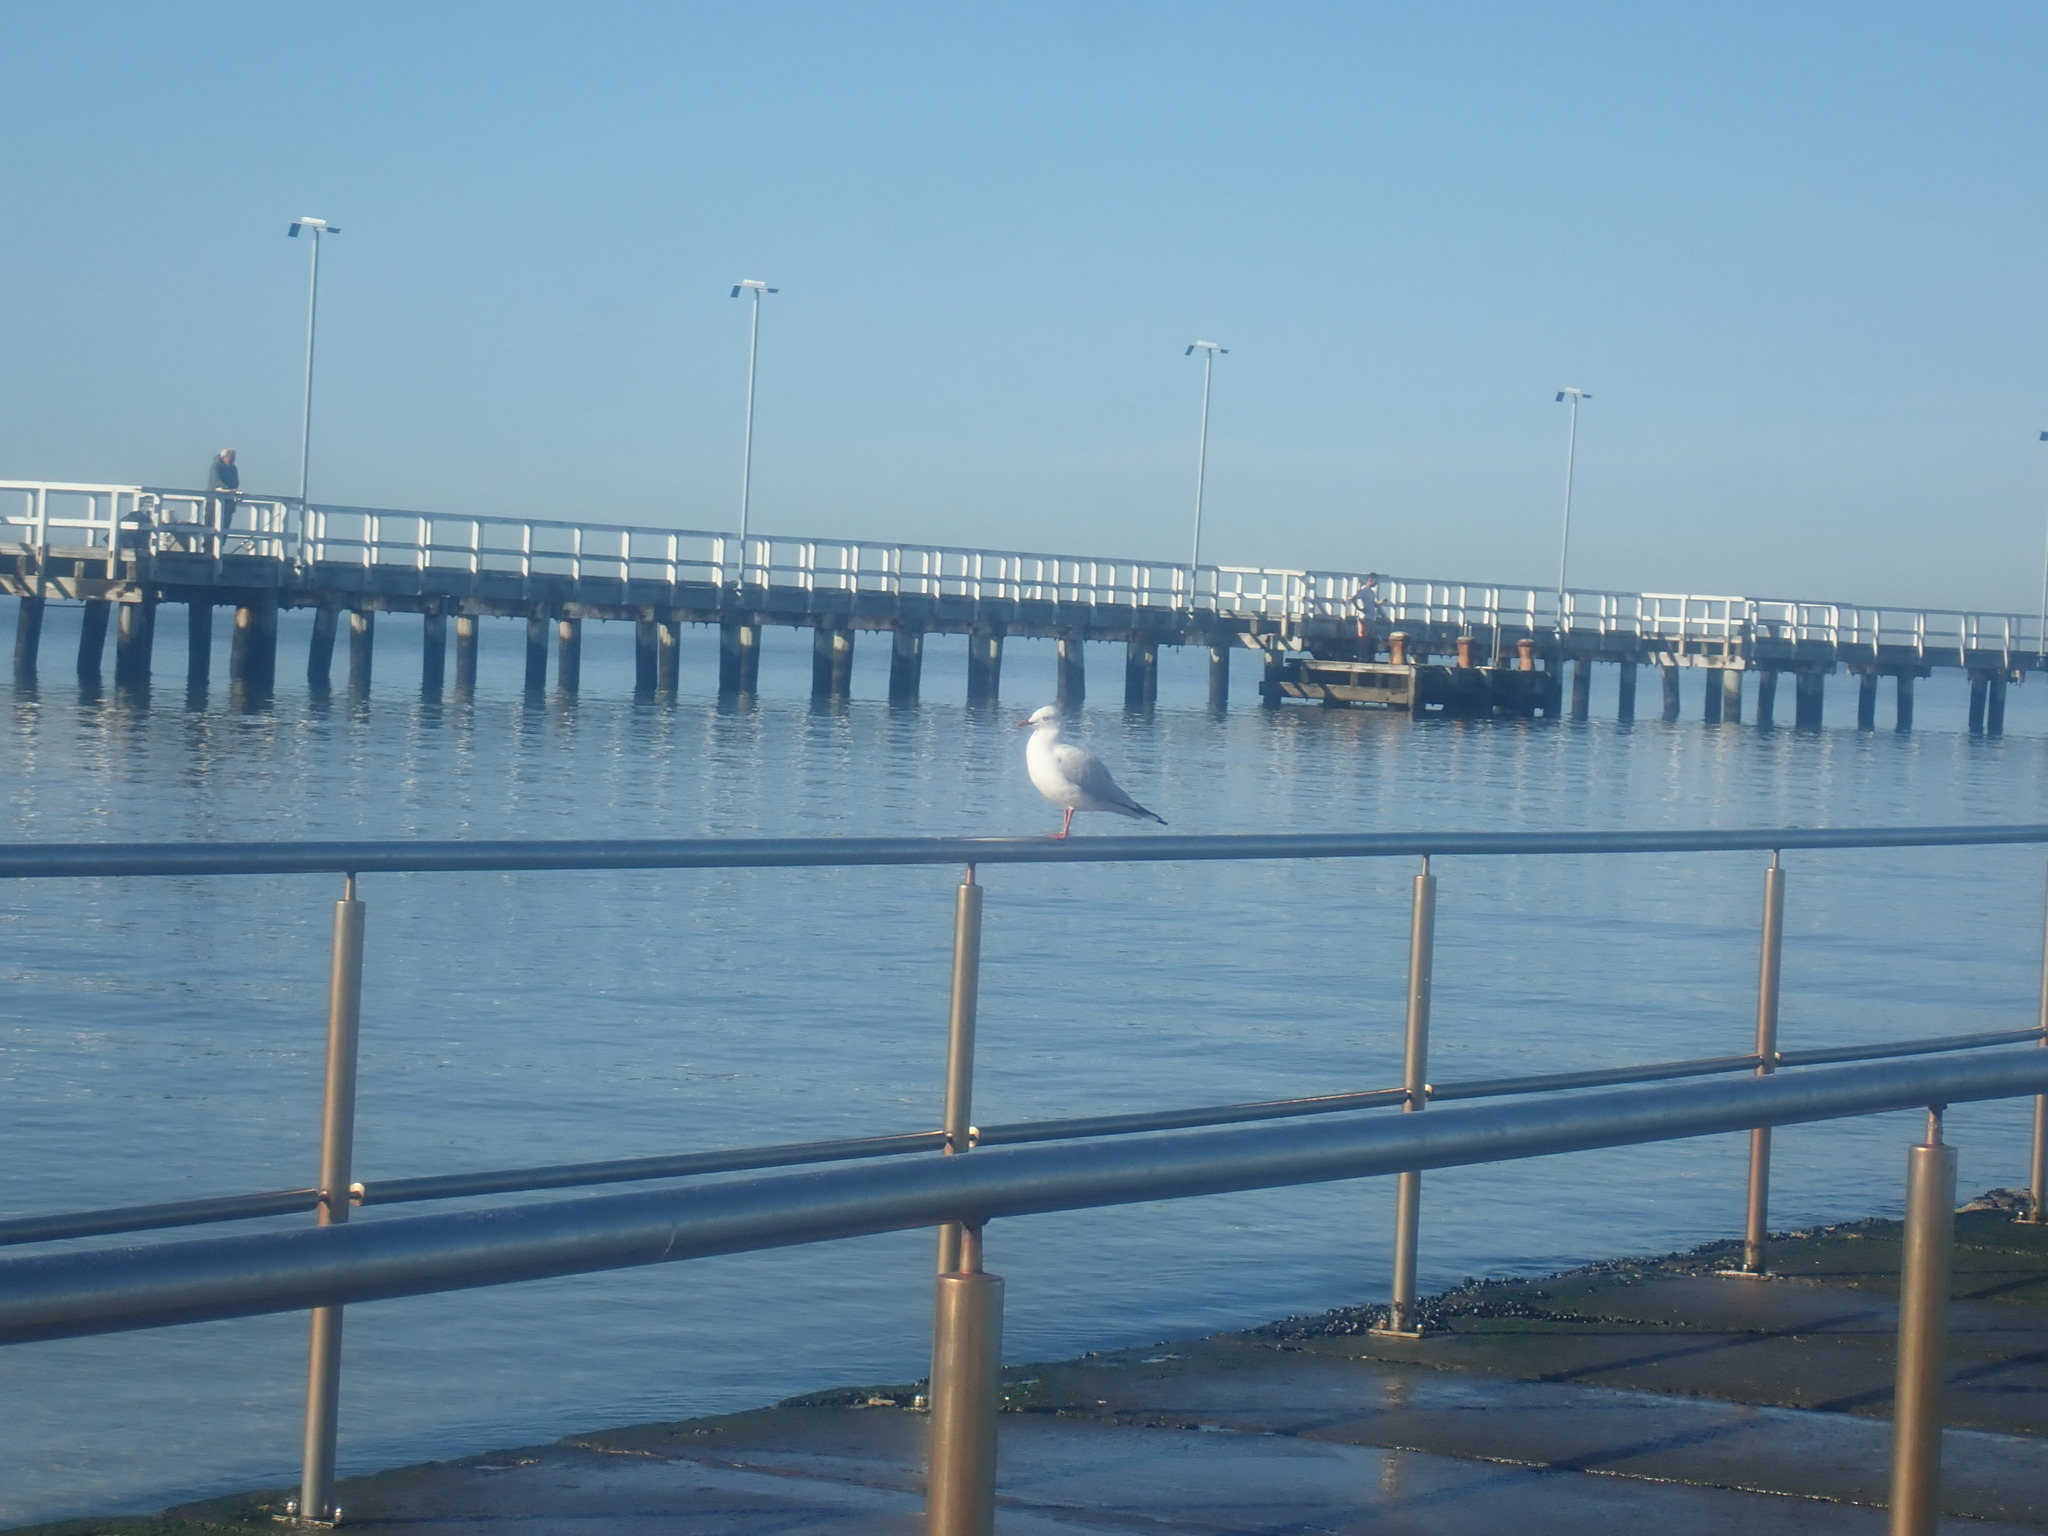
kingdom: Animalia
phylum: Chordata
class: Aves
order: Charadriiformes
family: Laridae
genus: Chroicocephalus
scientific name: Chroicocephalus novaehollandiae
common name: Silver gull
